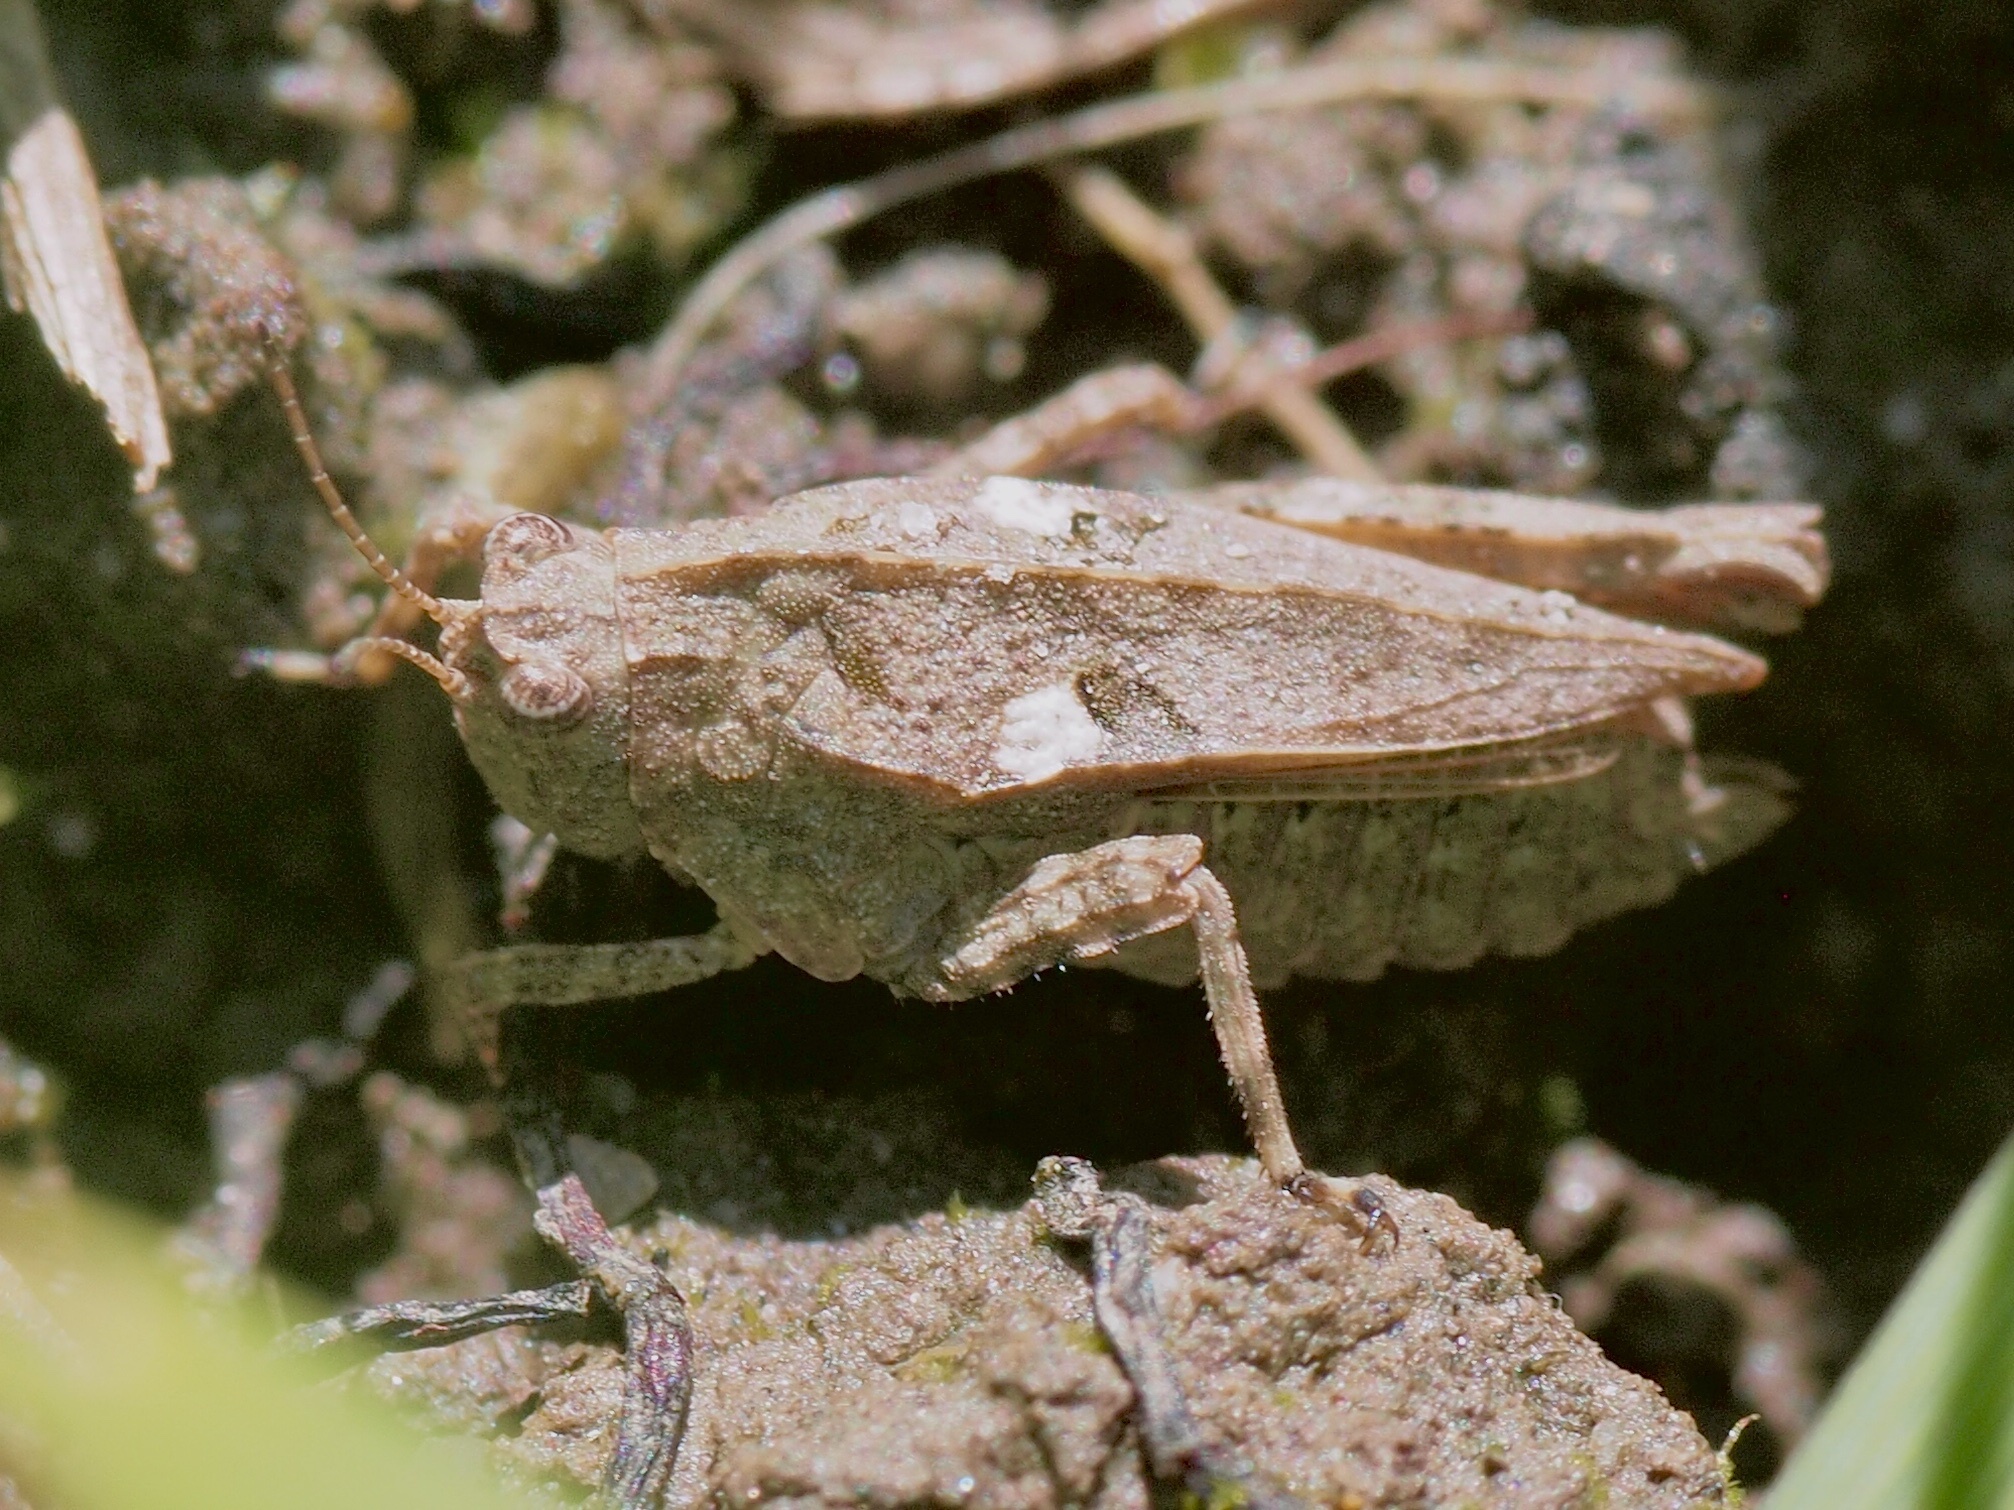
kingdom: Animalia
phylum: Arthropoda
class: Insecta
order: Orthoptera
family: Tetrigidae
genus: Tetrix
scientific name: Tetrix tenuicornis
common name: Long-horned groundhopper
